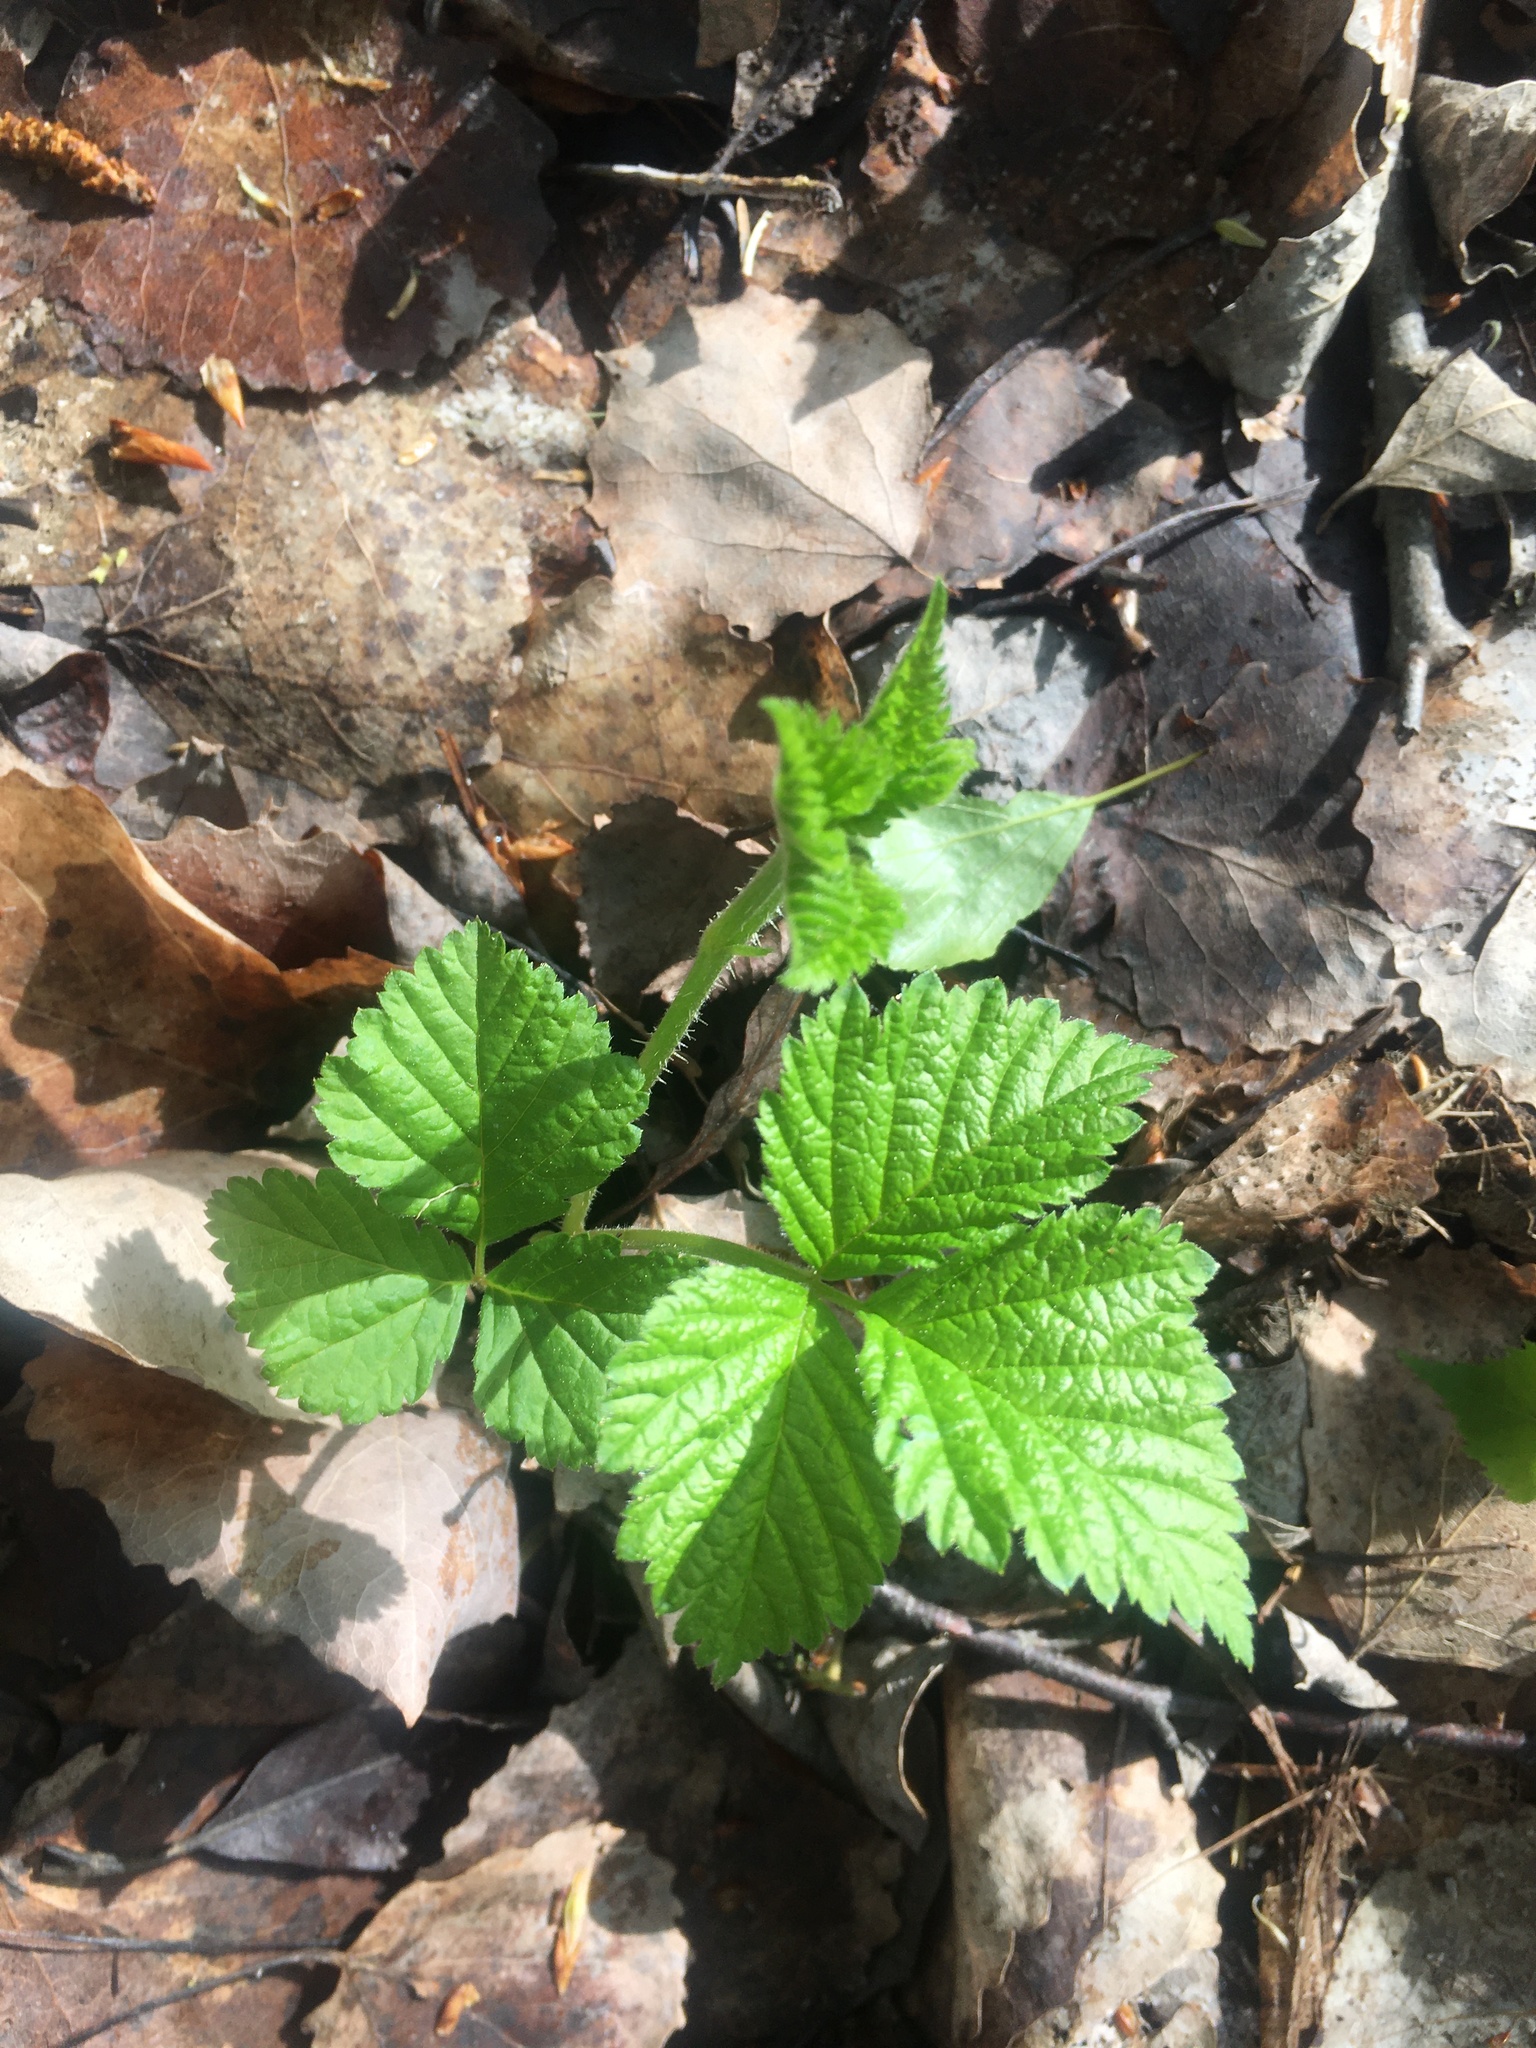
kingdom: Plantae
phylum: Tracheophyta
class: Magnoliopsida
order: Rosales
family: Rosaceae
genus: Rubus
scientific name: Rubus saxatilis
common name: Stone bramble
